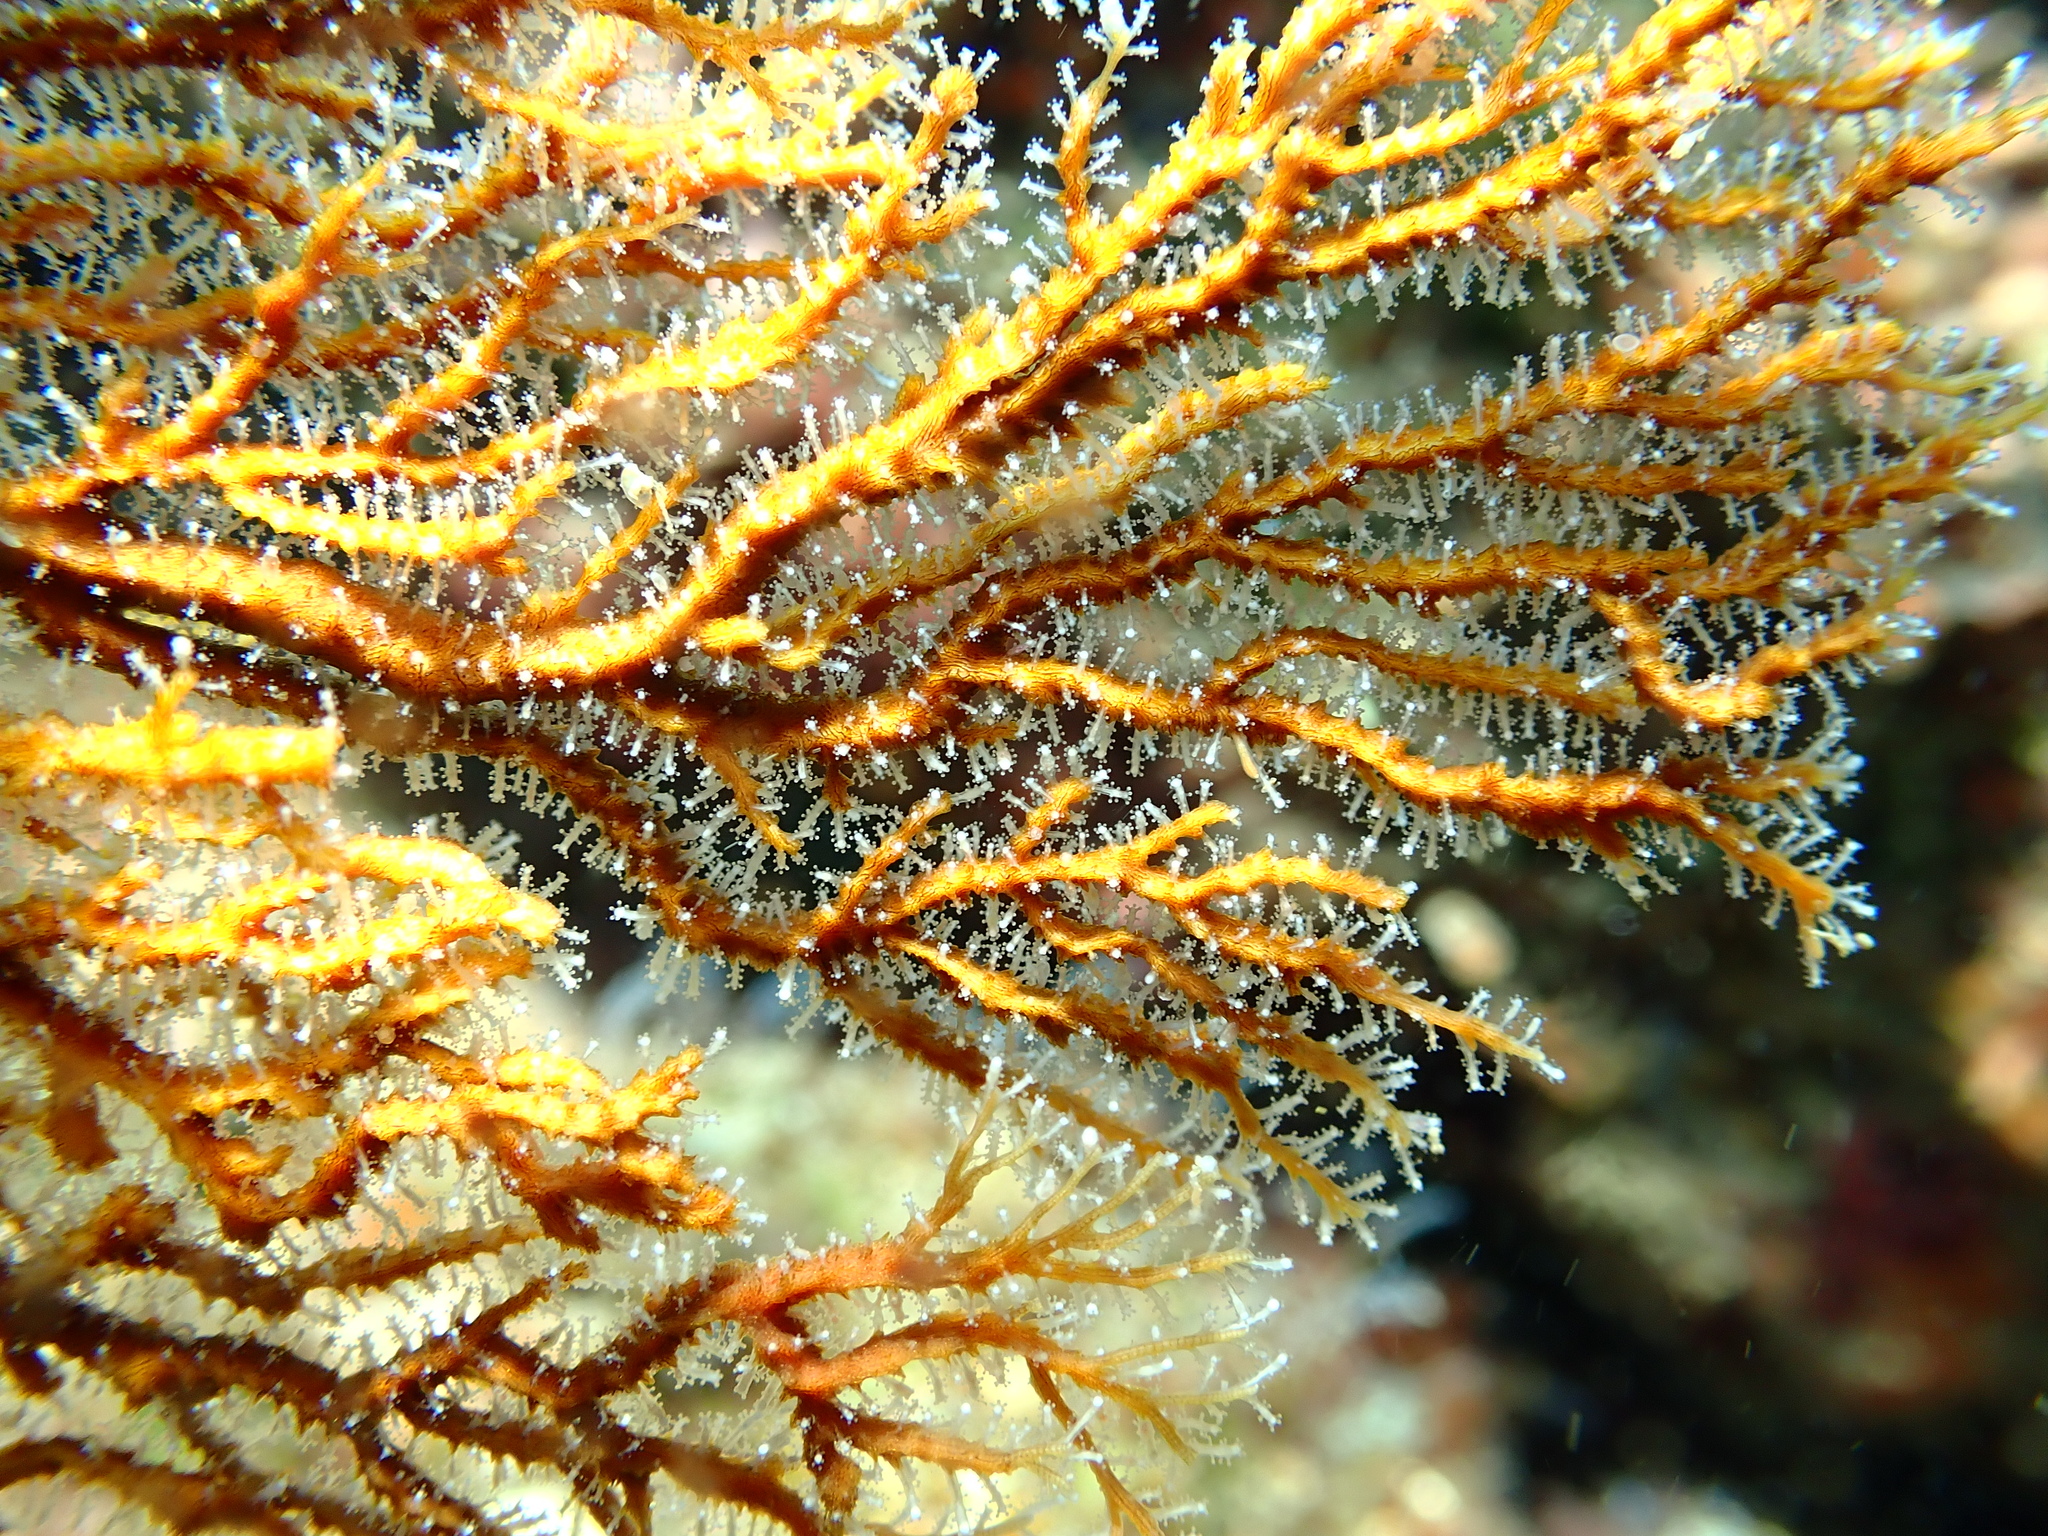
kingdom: Animalia
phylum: Cnidaria
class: Hydrozoa
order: Anthoathecata
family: Solanderiidae
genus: Solanderia
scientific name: Solanderia secunda
